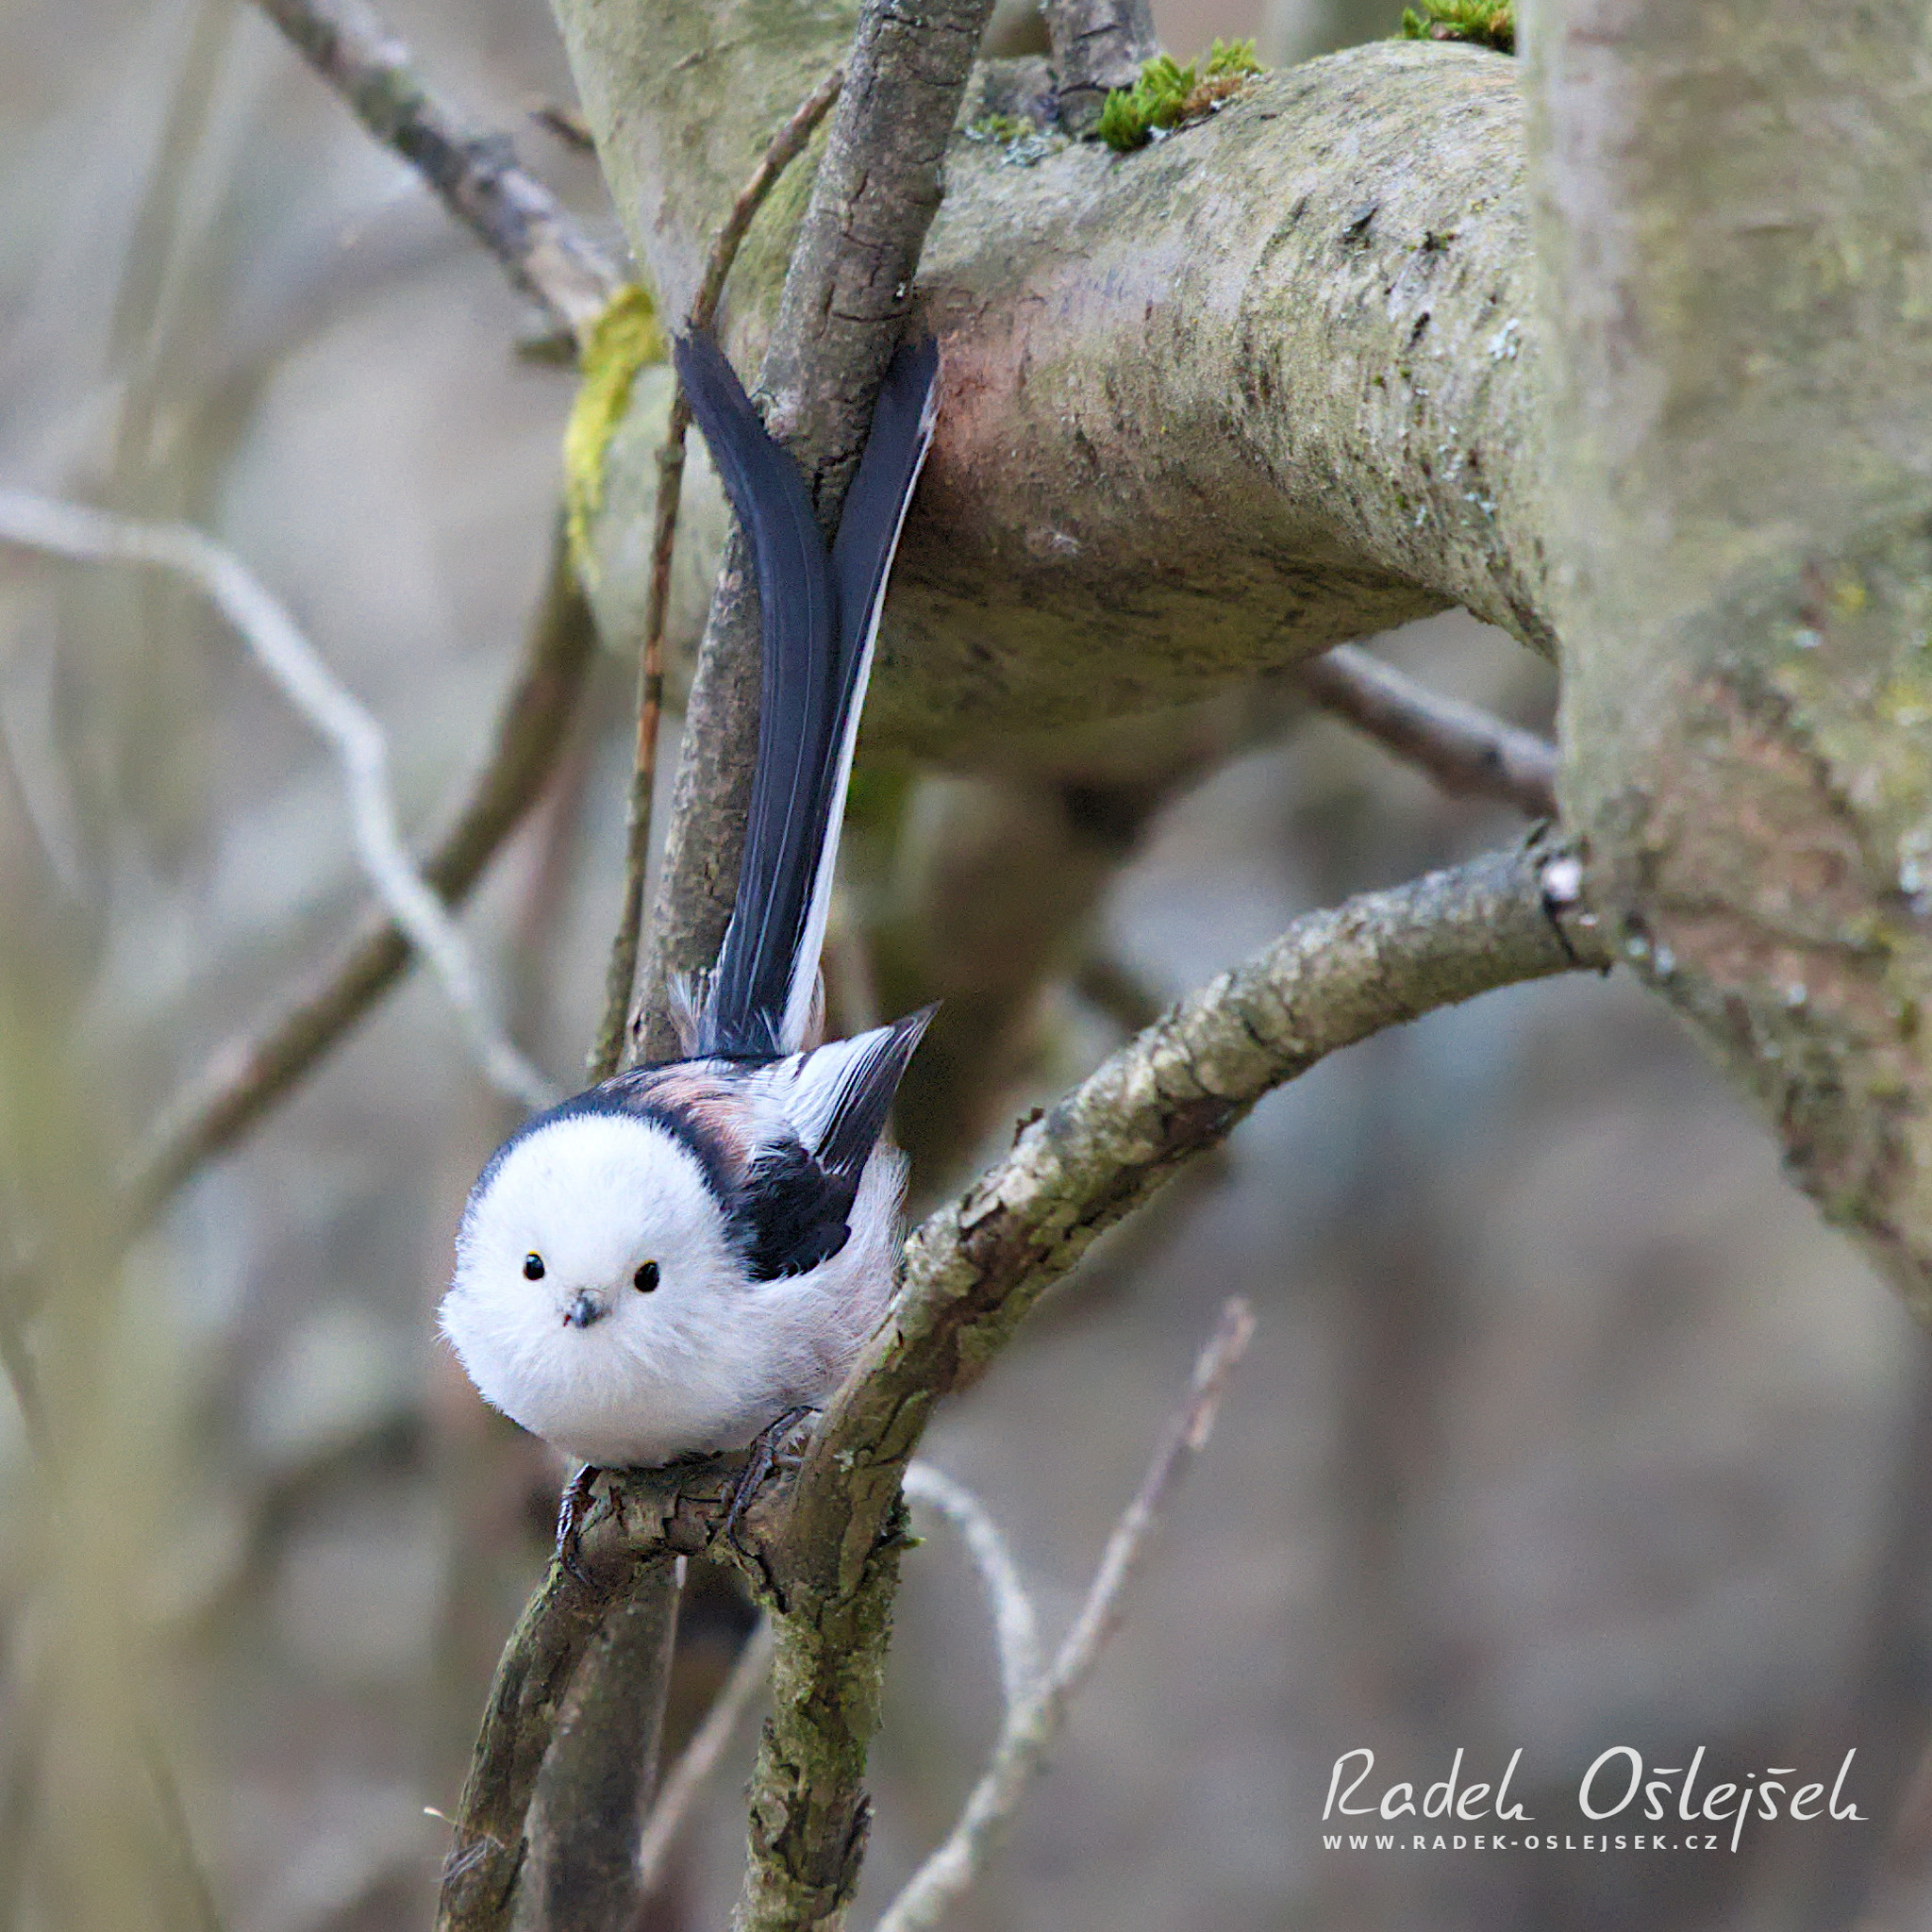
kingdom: Animalia
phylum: Chordata
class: Aves
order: Passeriformes
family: Aegithalidae
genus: Aegithalos
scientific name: Aegithalos caudatus
